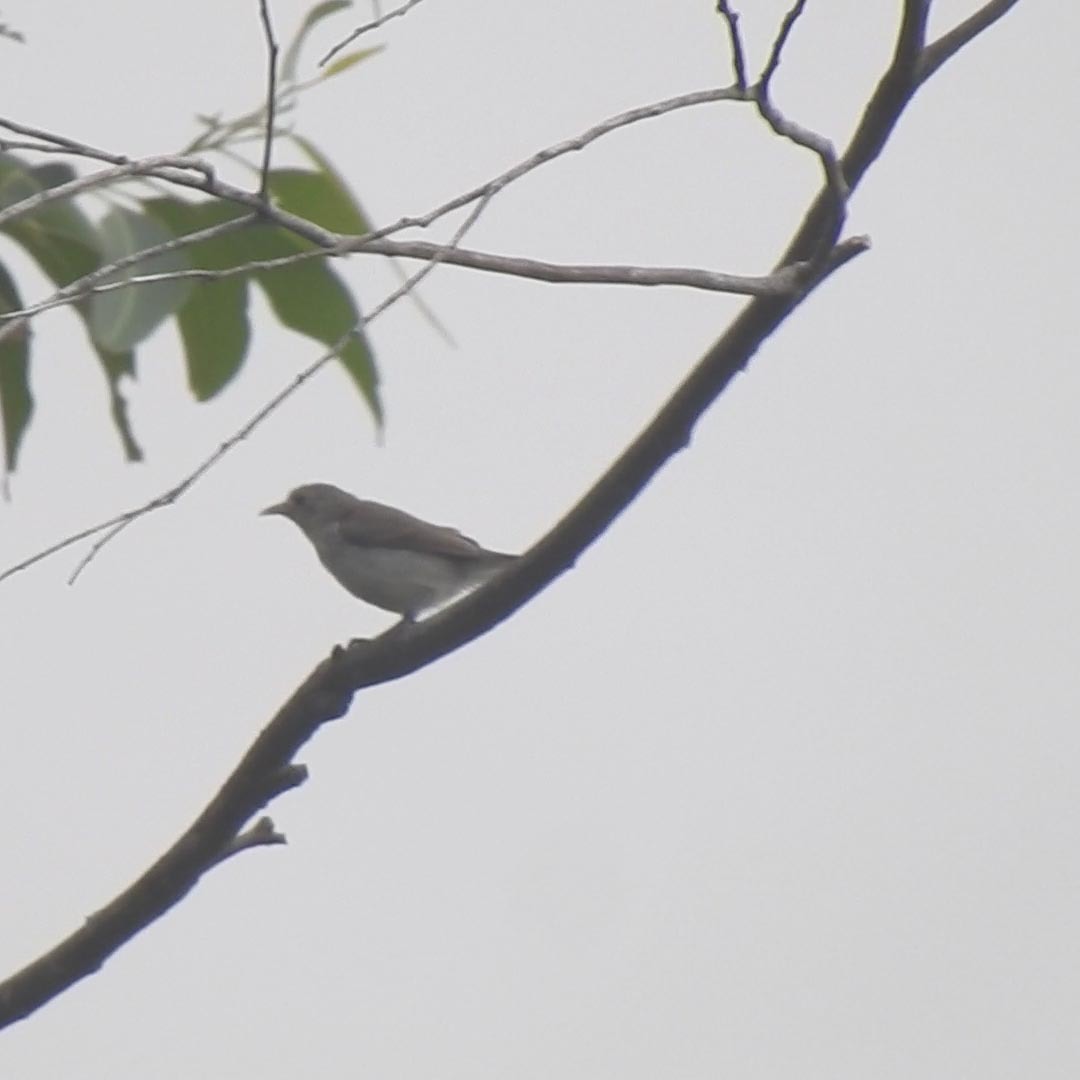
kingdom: Animalia
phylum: Chordata
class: Aves
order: Passeriformes
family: Dicaeidae
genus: Dicaeum
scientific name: Dicaeum erythrorhynchos
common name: Pale-billed flowerpecker
